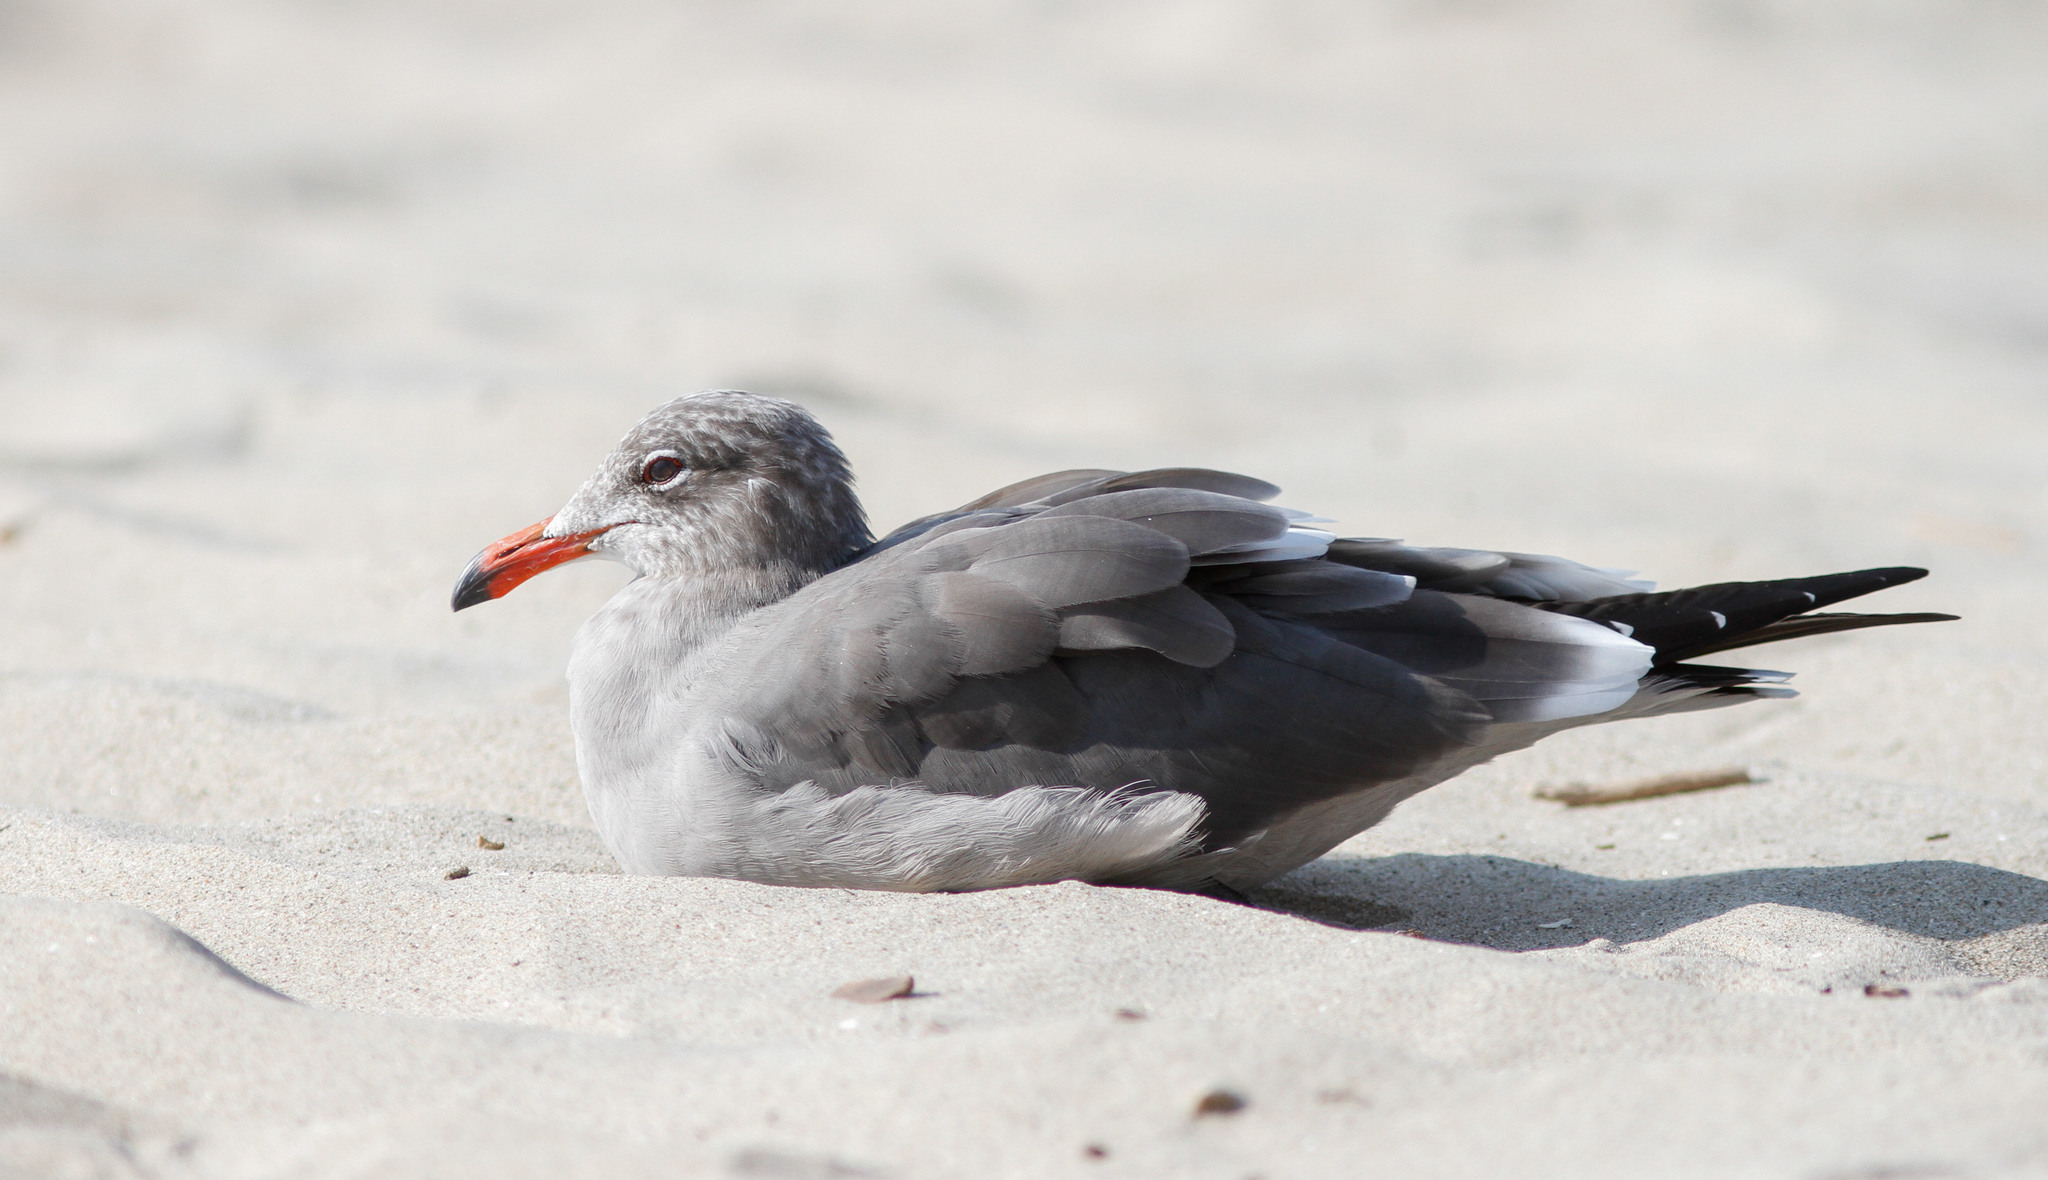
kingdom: Animalia
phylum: Chordata
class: Aves
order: Charadriiformes
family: Laridae
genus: Larus
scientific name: Larus heermanni
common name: Heermann's gull
